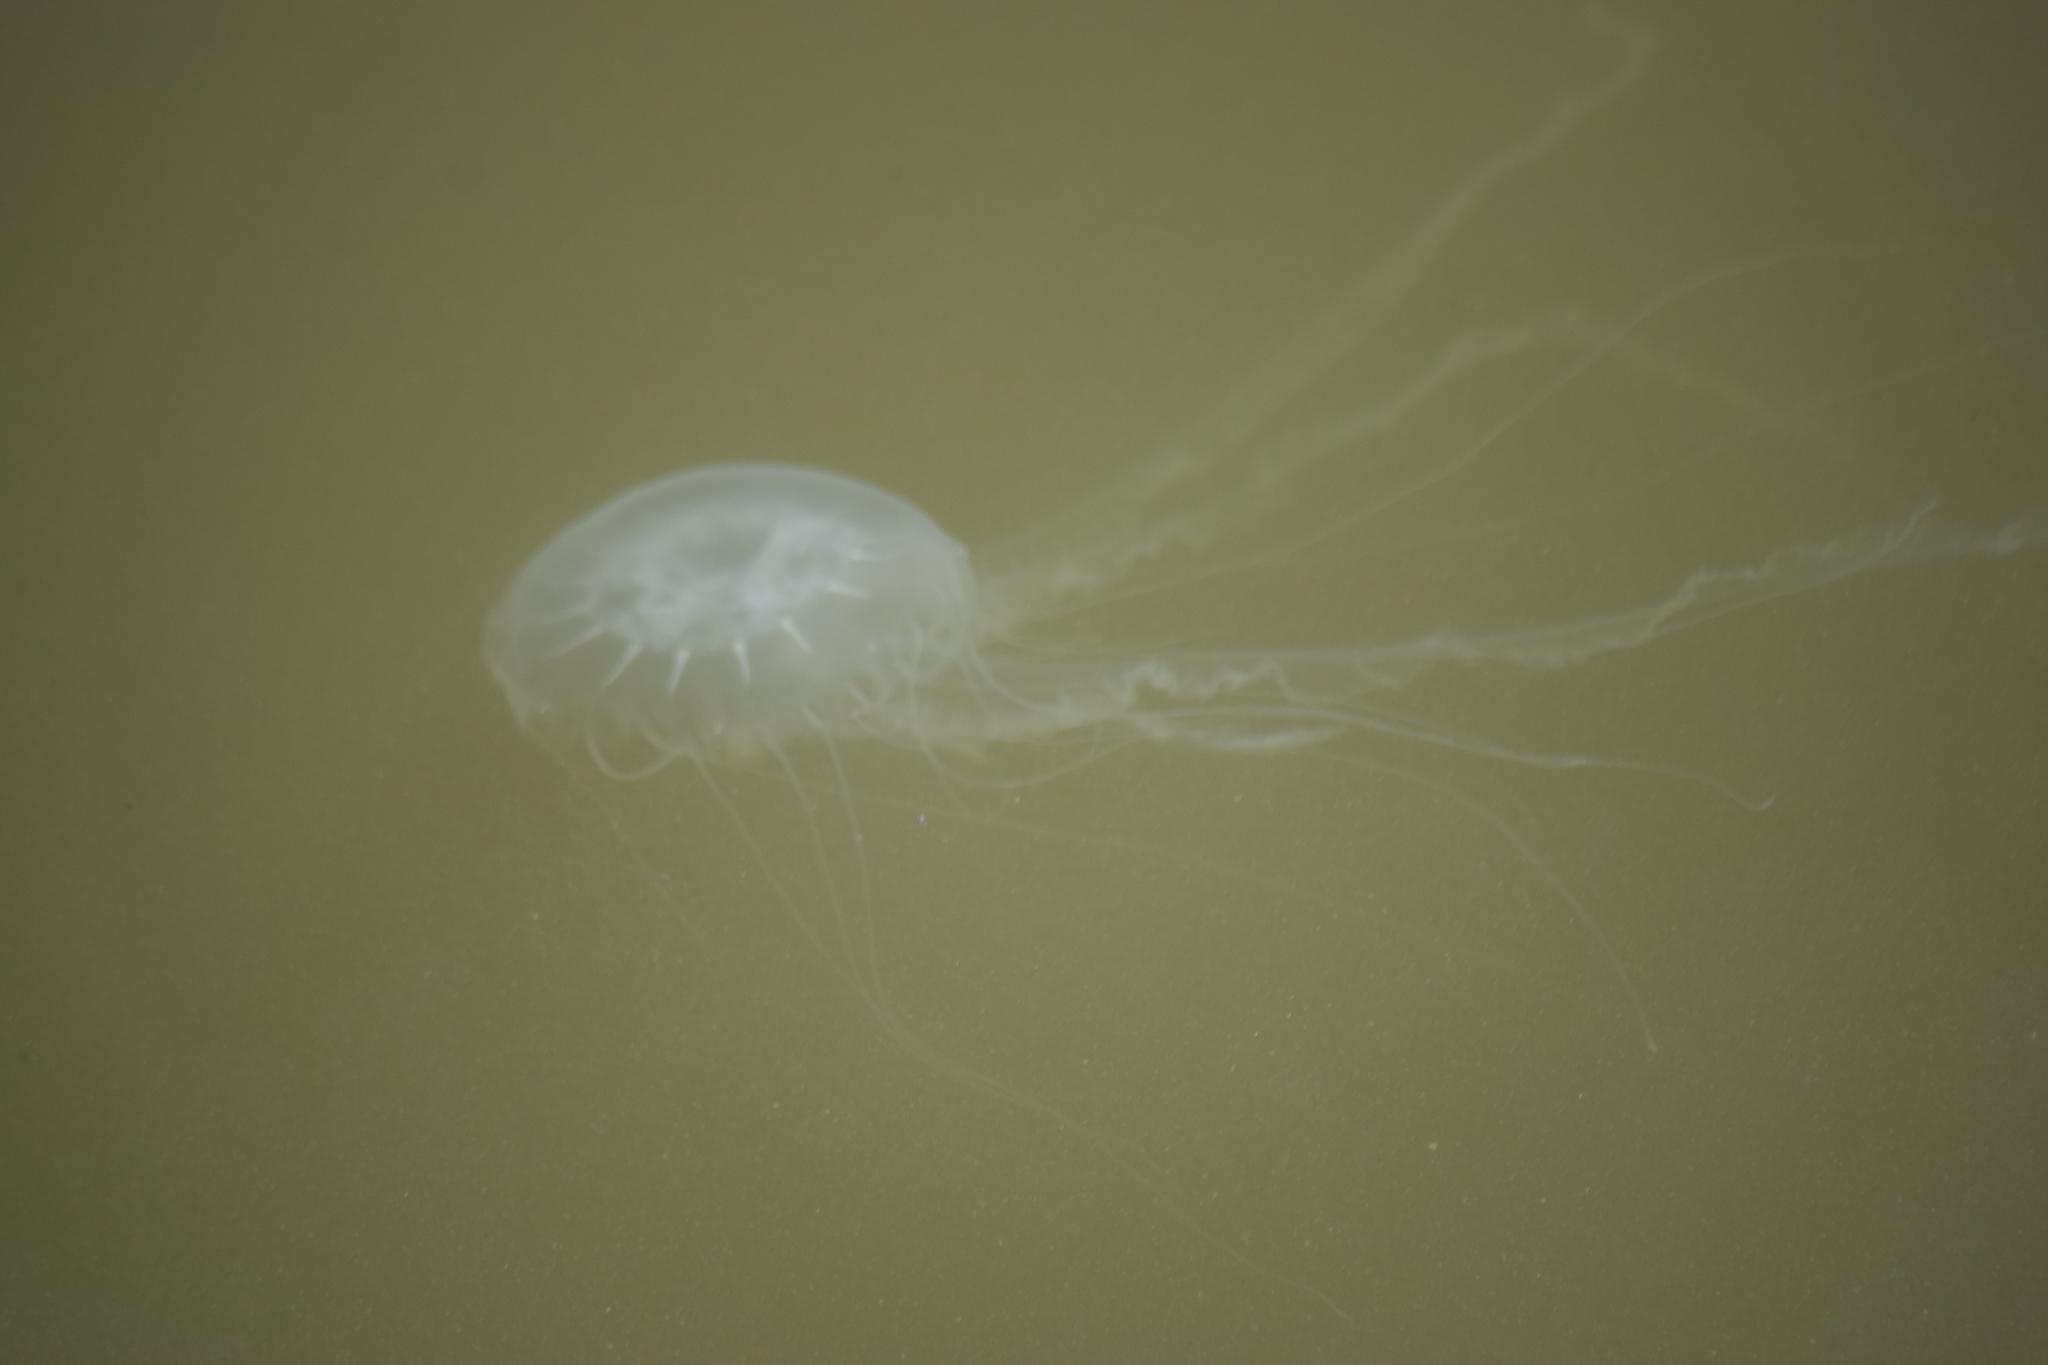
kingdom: Animalia
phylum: Cnidaria
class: Scyphozoa
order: Semaeostomeae
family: Pelagiidae
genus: Chrysaora
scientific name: Chrysaora chesapeakei
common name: Bay nettle
